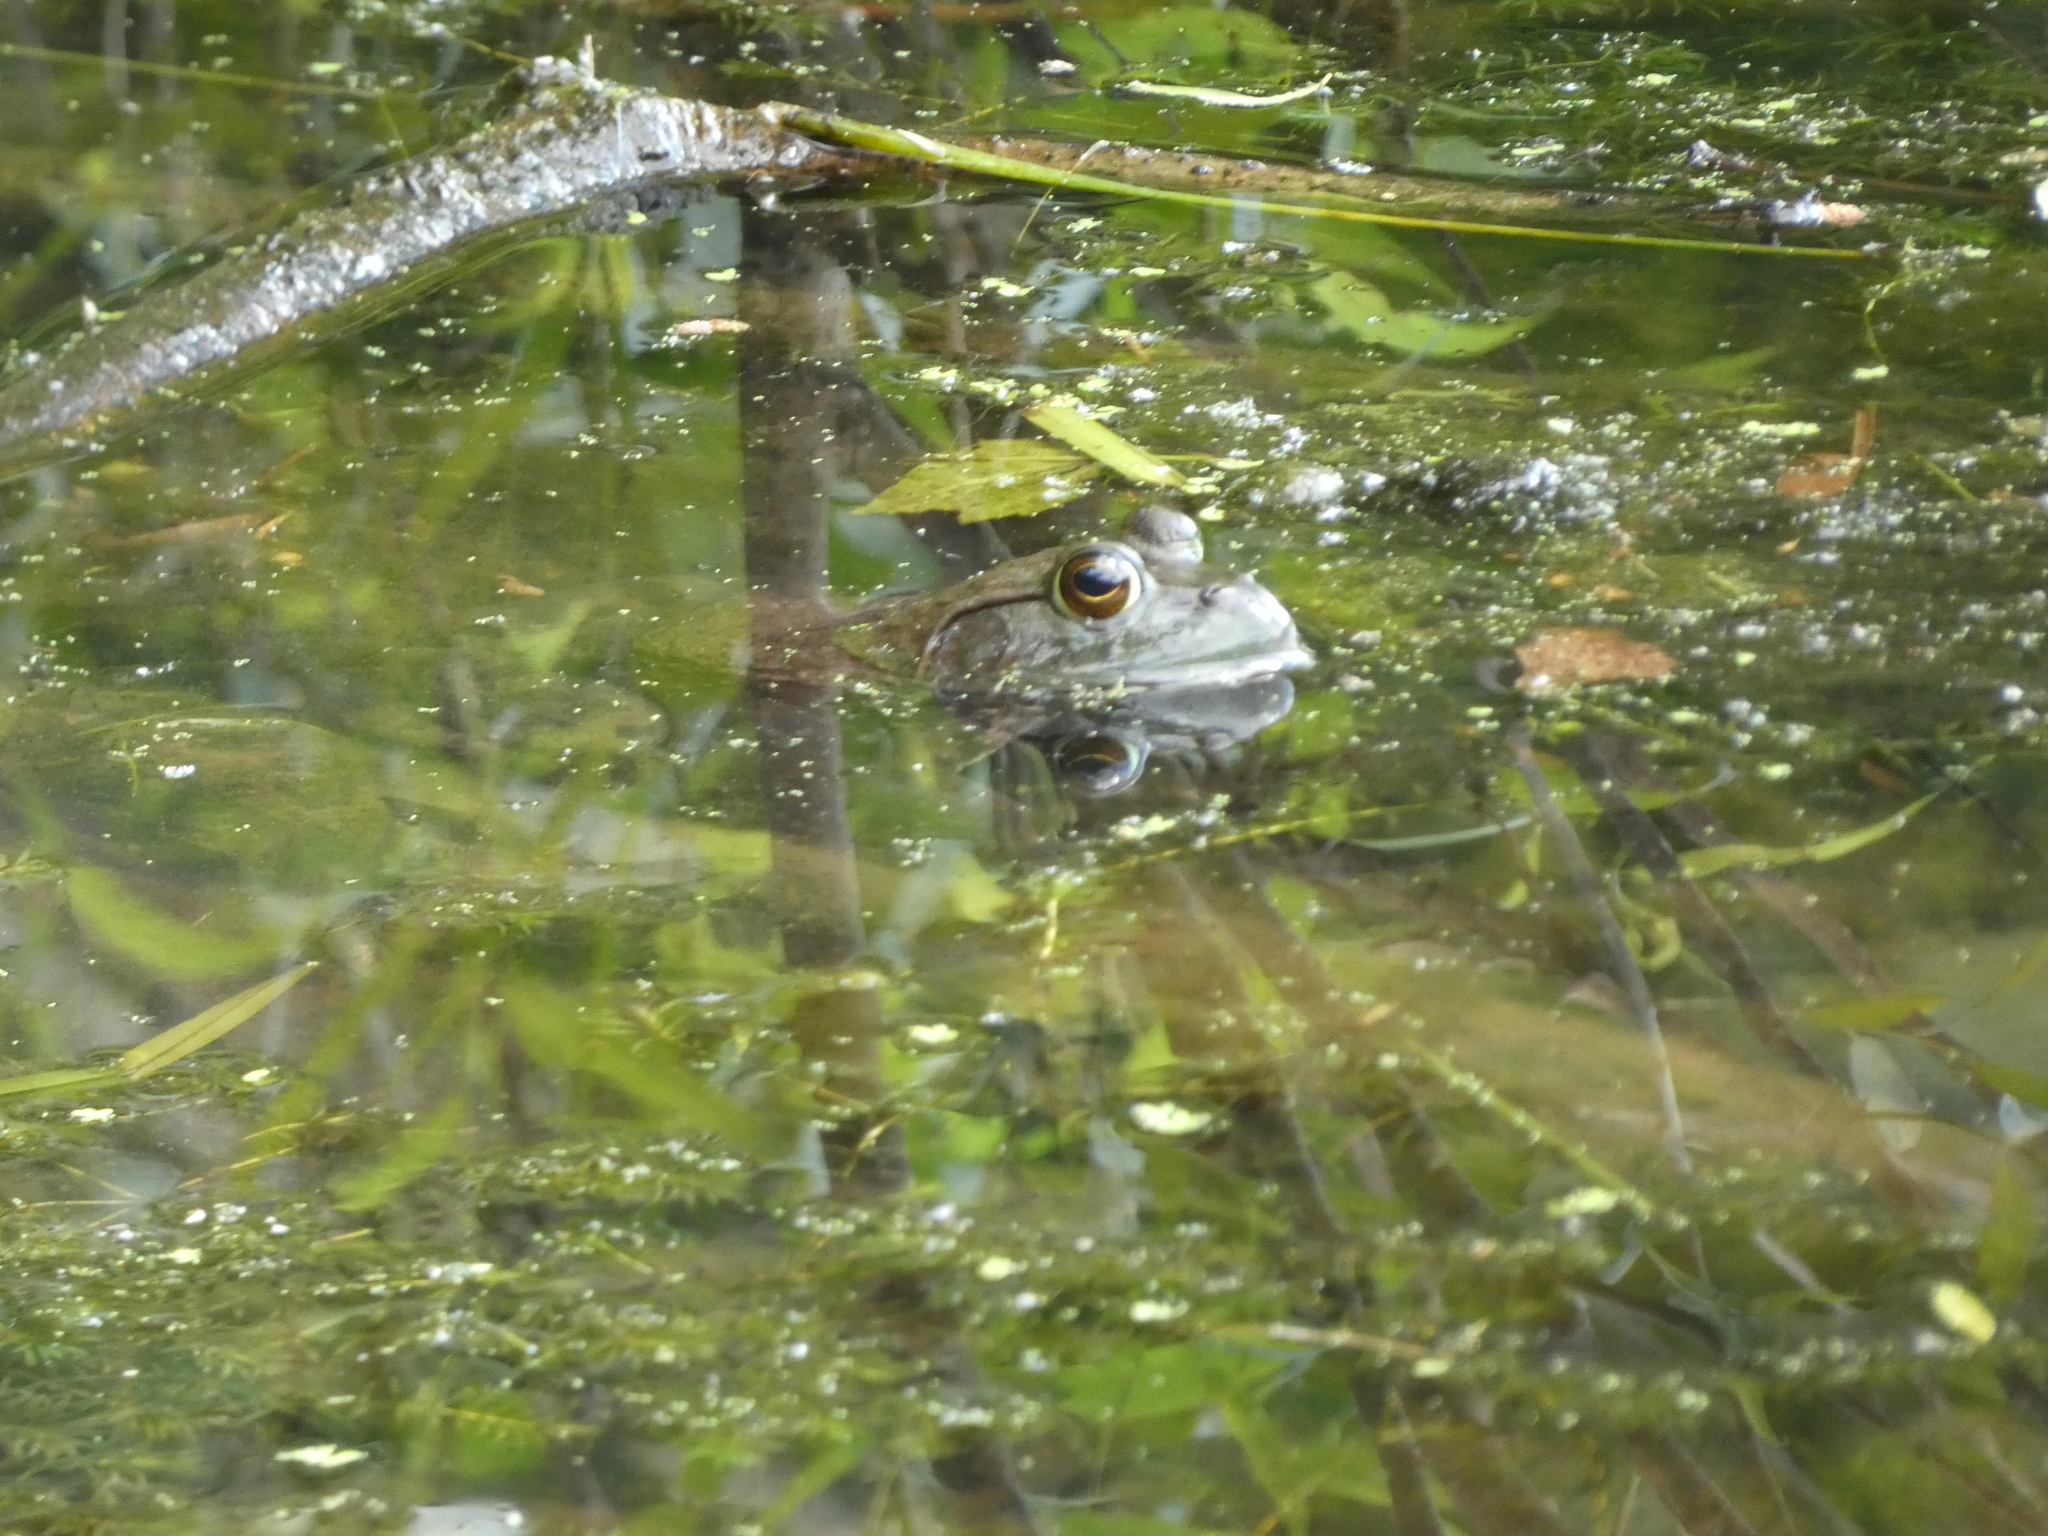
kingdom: Animalia
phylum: Chordata
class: Amphibia
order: Anura
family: Ranidae
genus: Lithobates
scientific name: Lithobates catesbeianus
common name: American bullfrog
